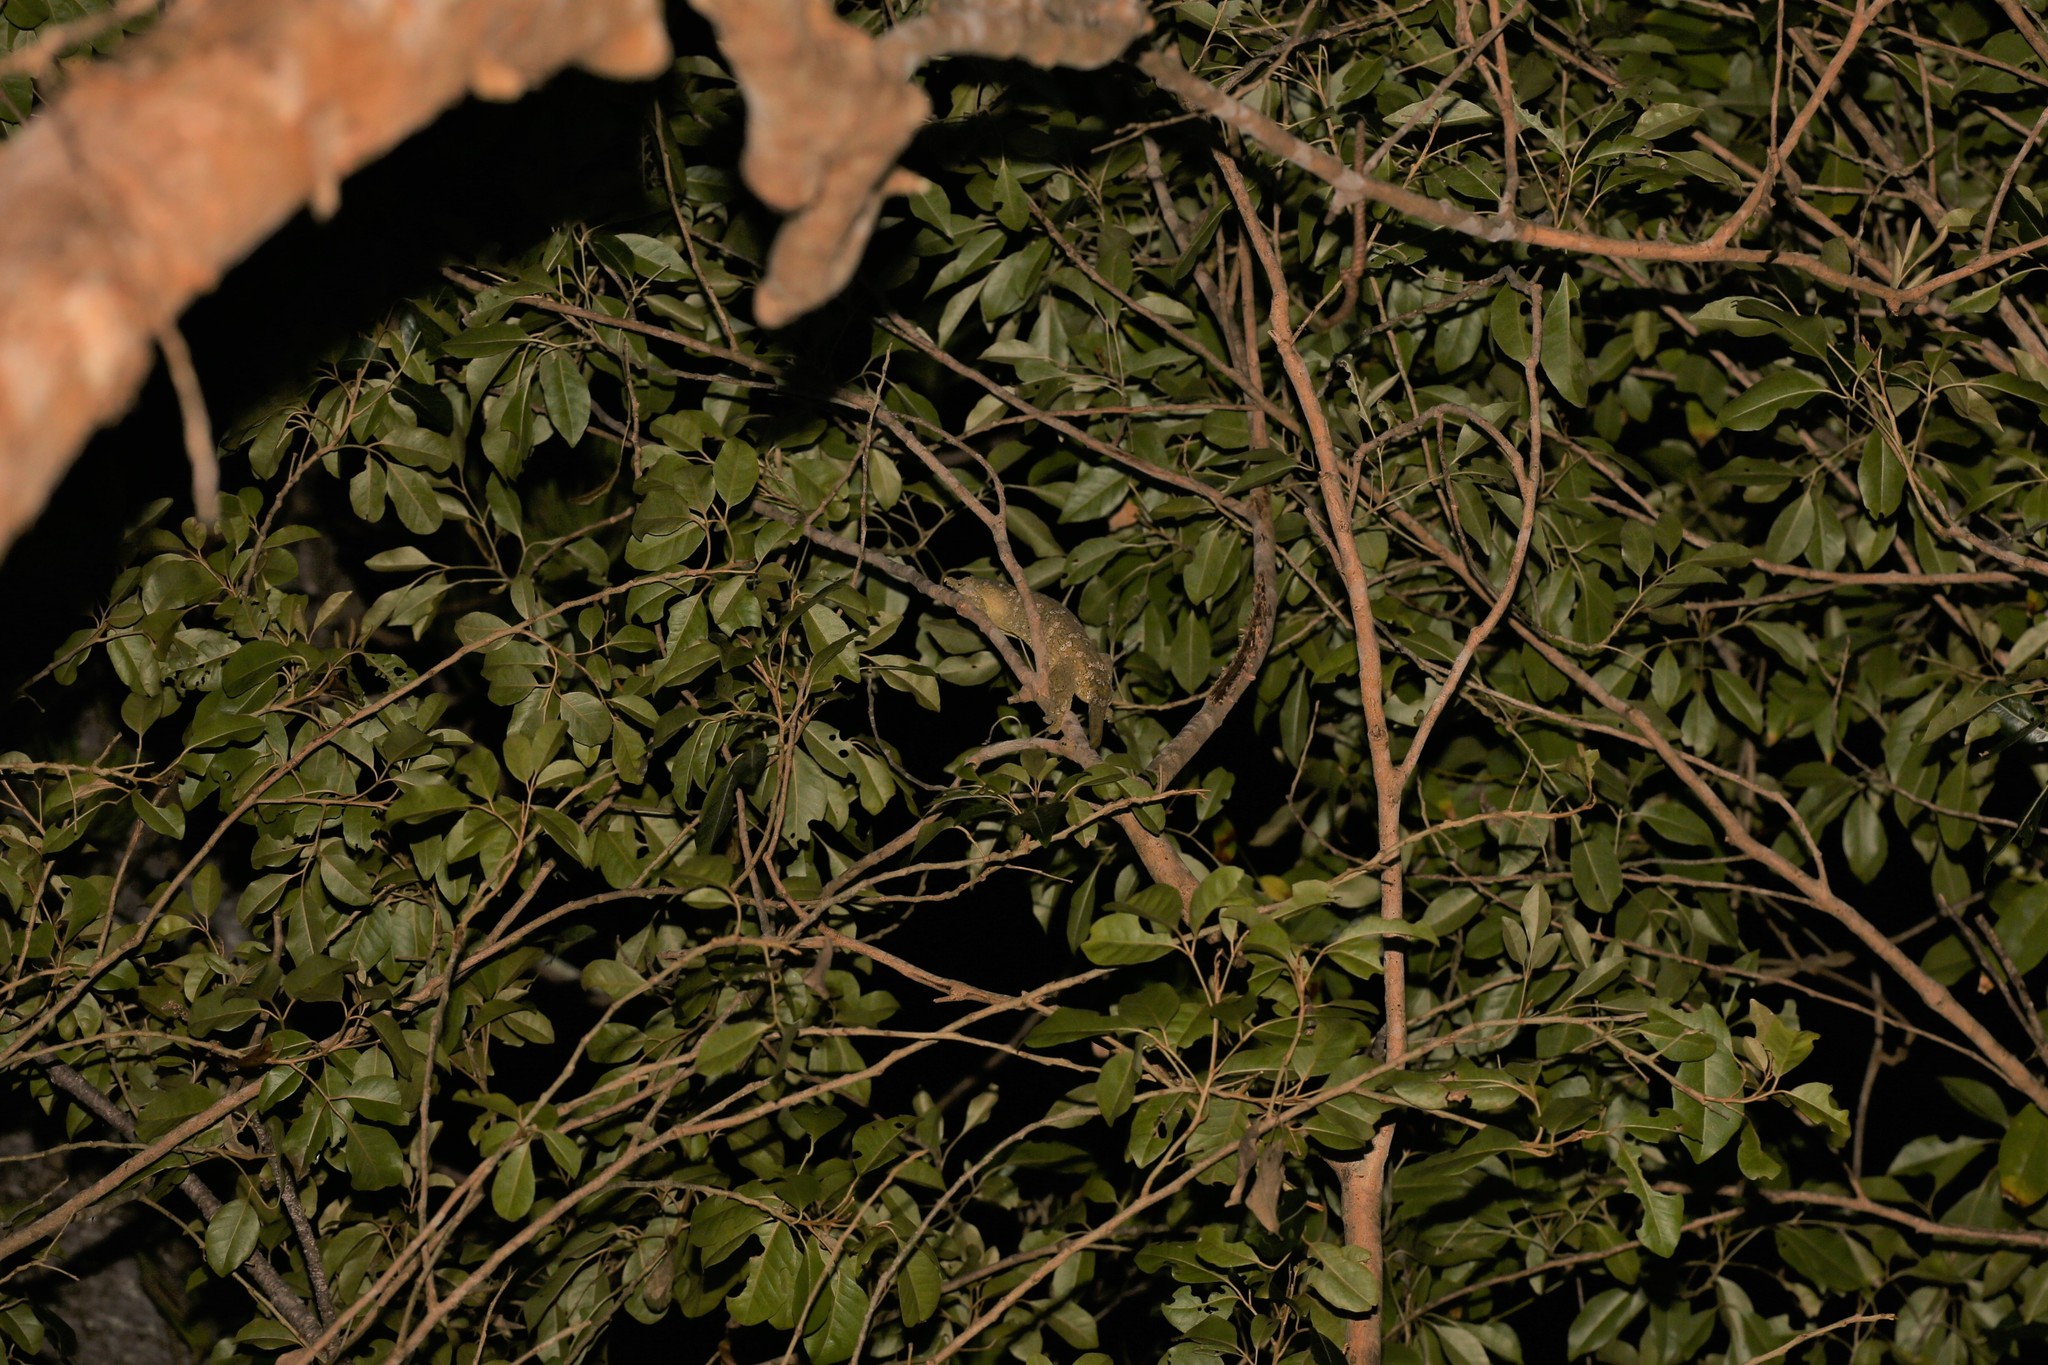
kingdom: Animalia
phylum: Chordata
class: Squamata
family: Diplodactylidae
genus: Rhacodactylus
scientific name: Rhacodactylus leachianus
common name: New caledonia giant gecko
